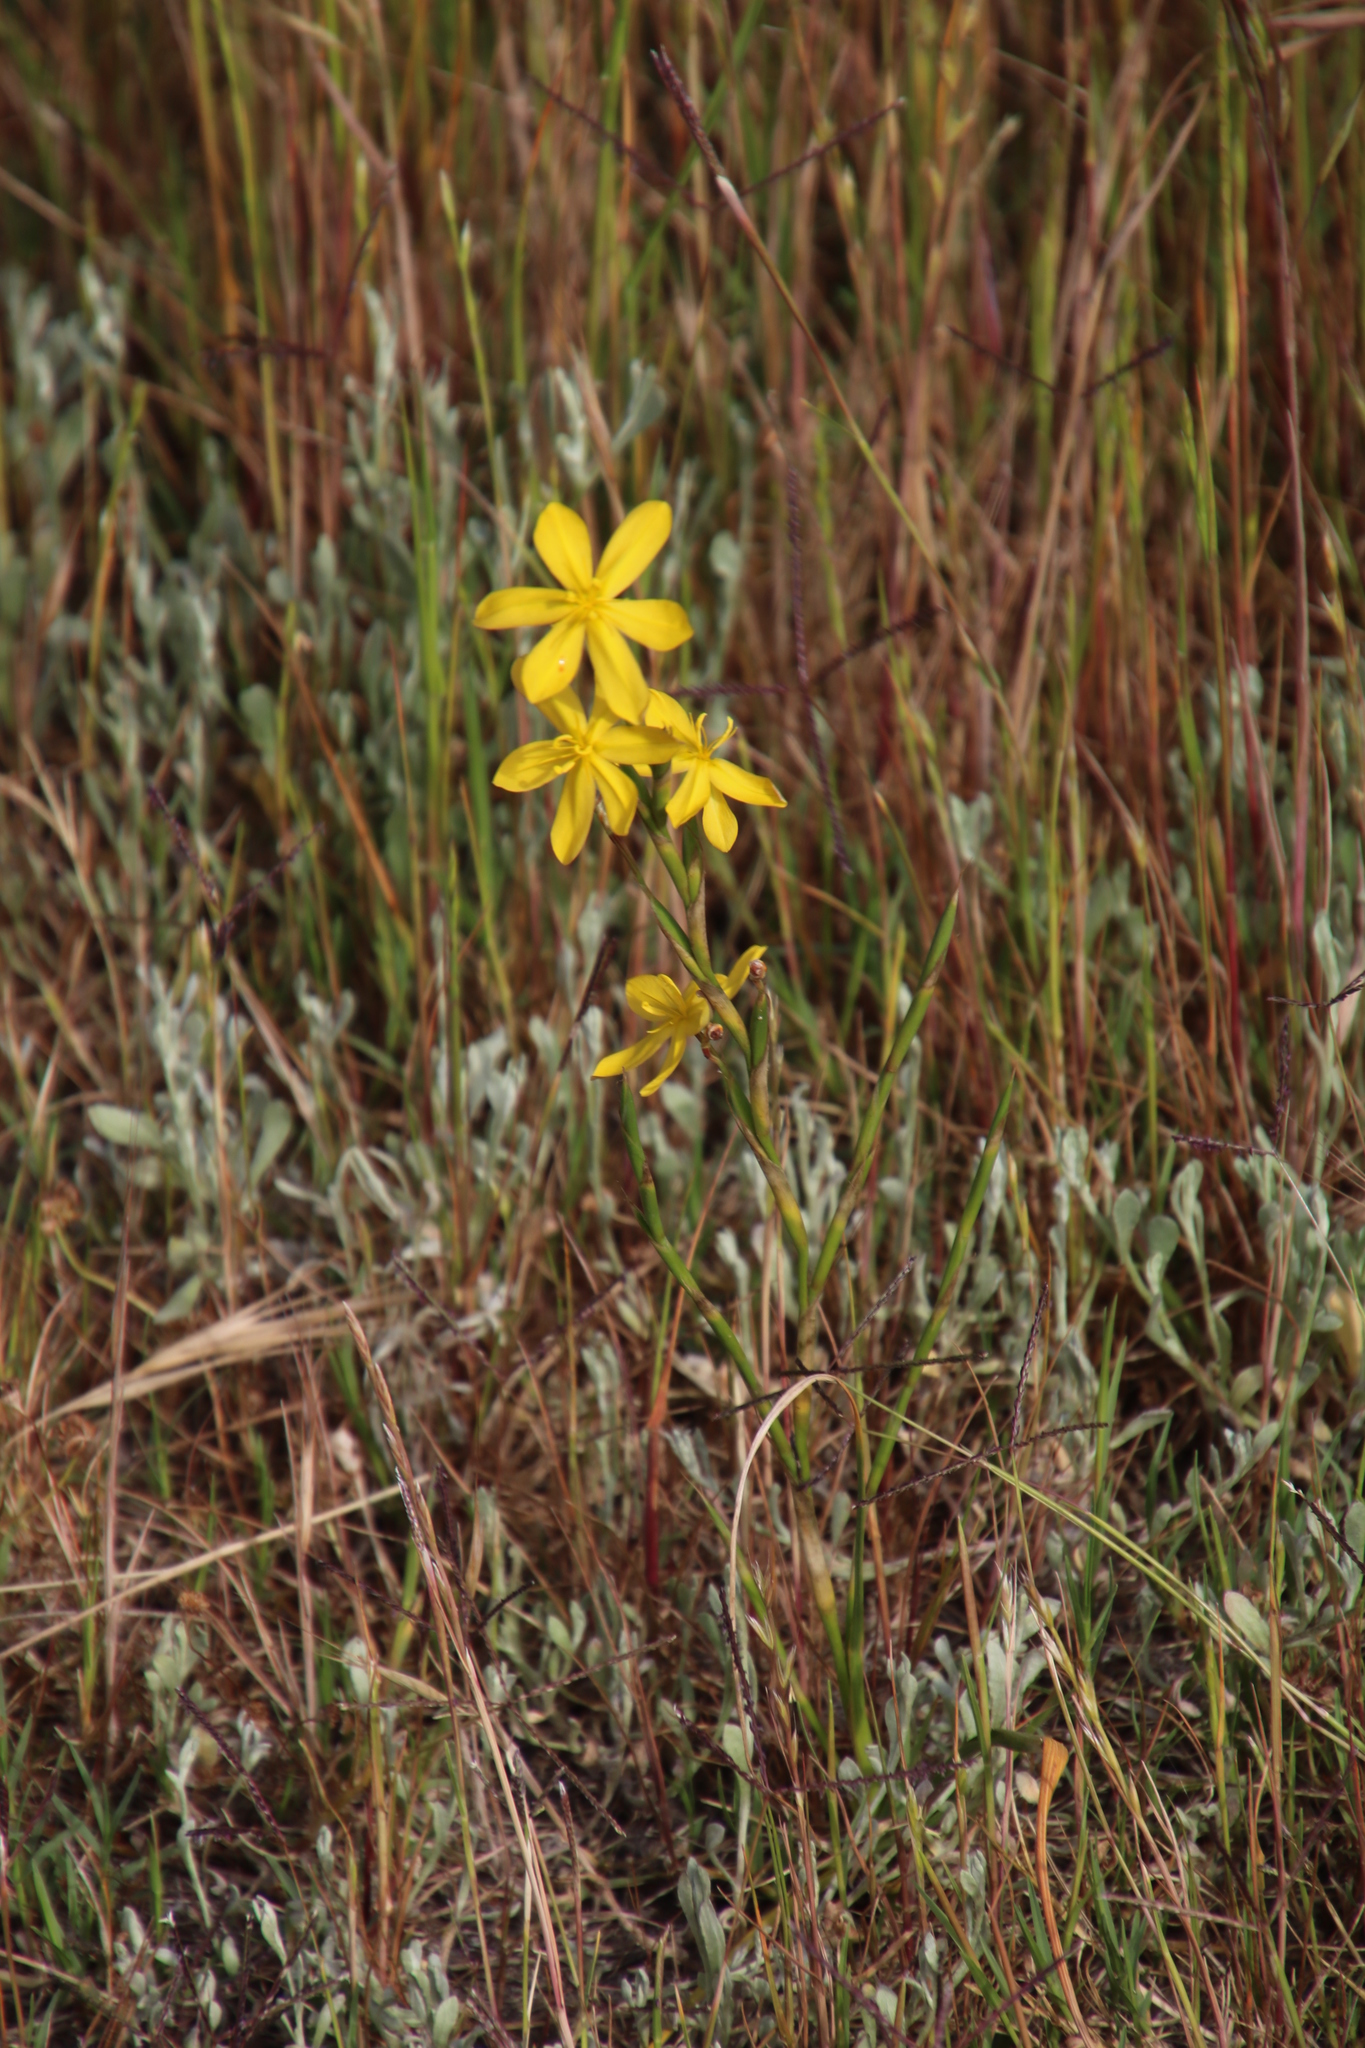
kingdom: Plantae
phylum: Tracheophyta
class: Liliopsida
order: Asparagales
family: Iridaceae
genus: Moraea
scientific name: Moraea lewisiae
